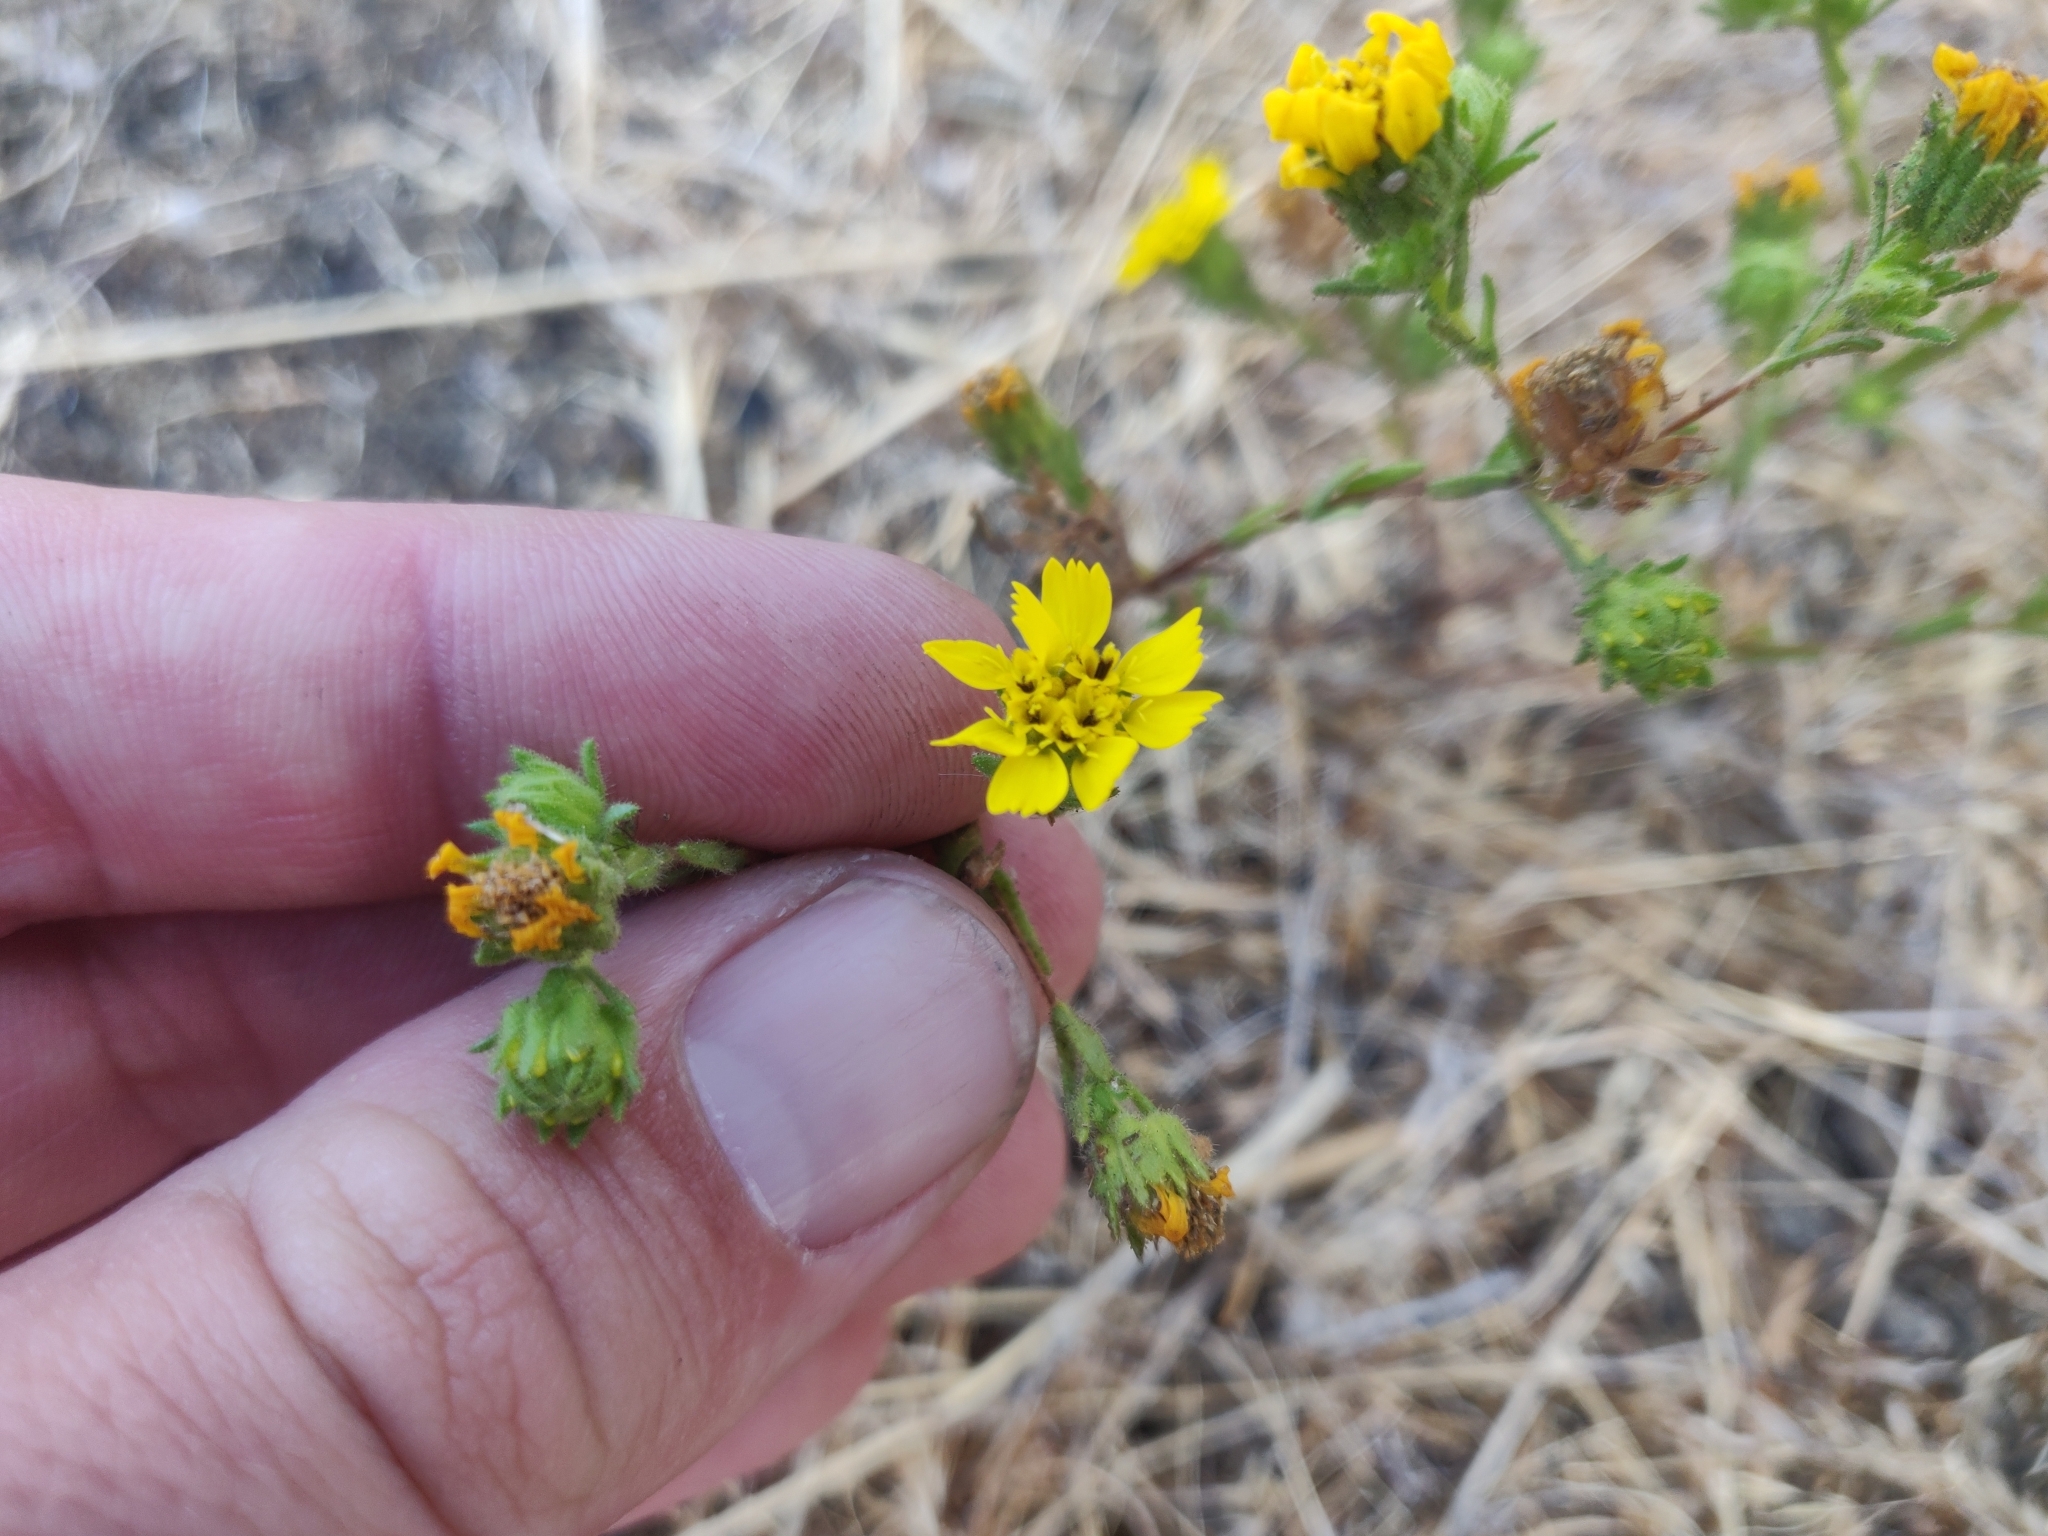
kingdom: Plantae
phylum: Tracheophyta
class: Magnoliopsida
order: Asterales
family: Asteraceae
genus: Deinandra
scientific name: Deinandra corymbosa
